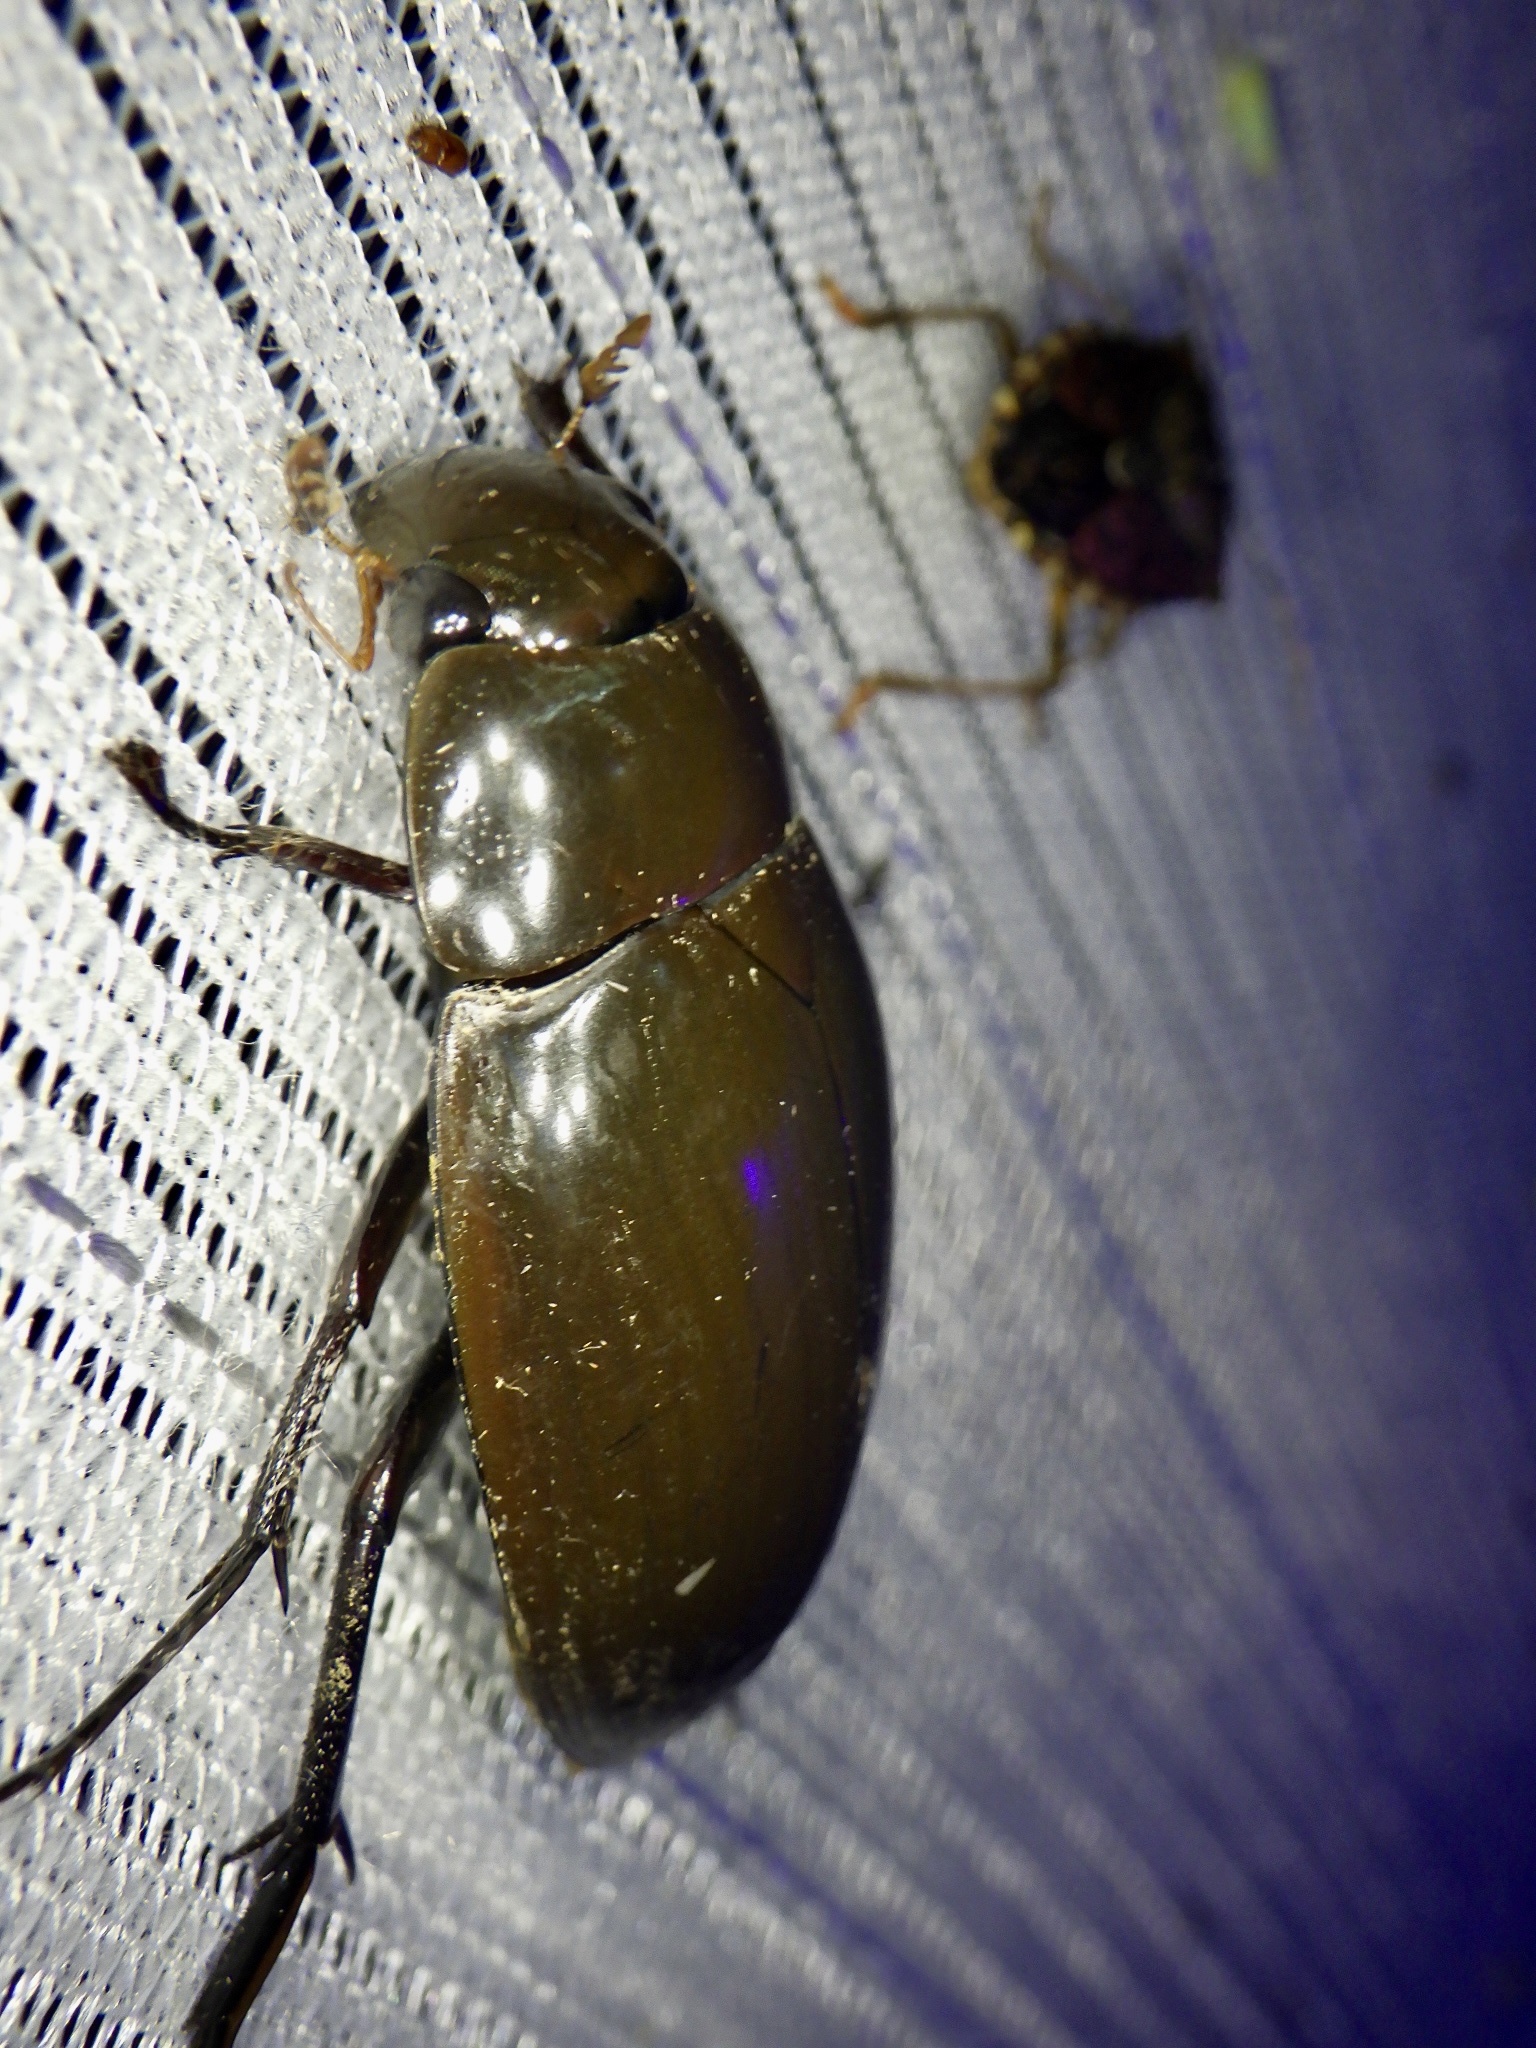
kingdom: Animalia
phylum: Arthropoda
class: Insecta
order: Coleoptera
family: Hydrophilidae
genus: Hydrophilus
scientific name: Hydrophilus acuminatus
